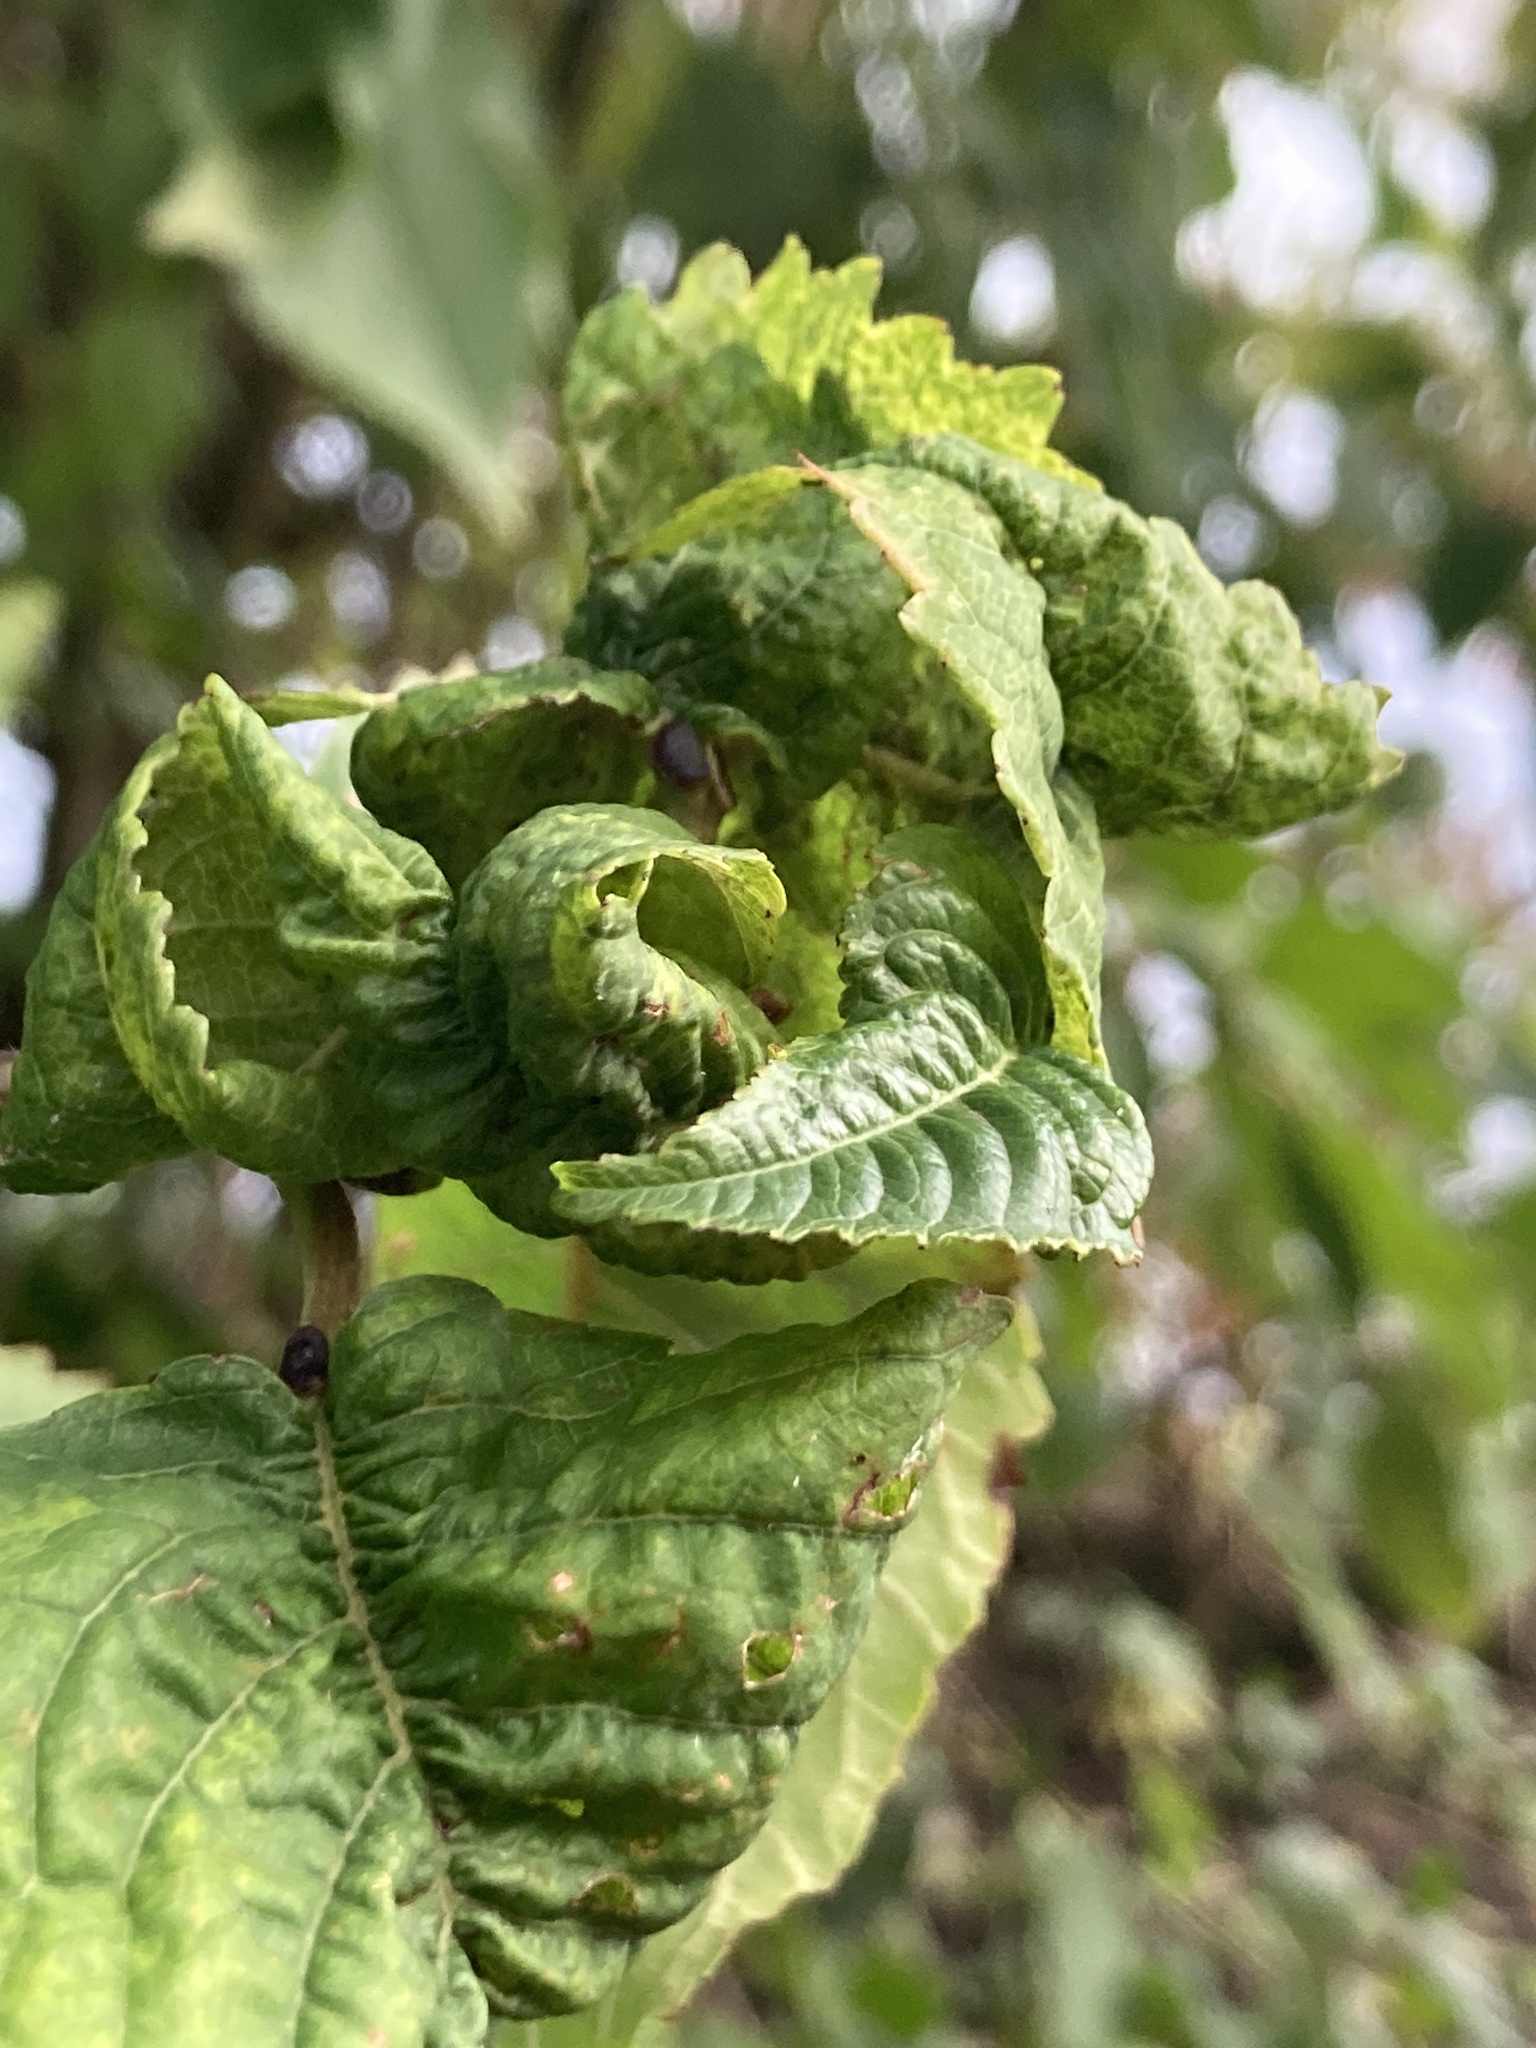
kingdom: Animalia
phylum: Arthropoda
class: Insecta
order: Hemiptera
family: Aphididae
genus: Myzus
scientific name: Myzus cerasi
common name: Black cherry aphid
